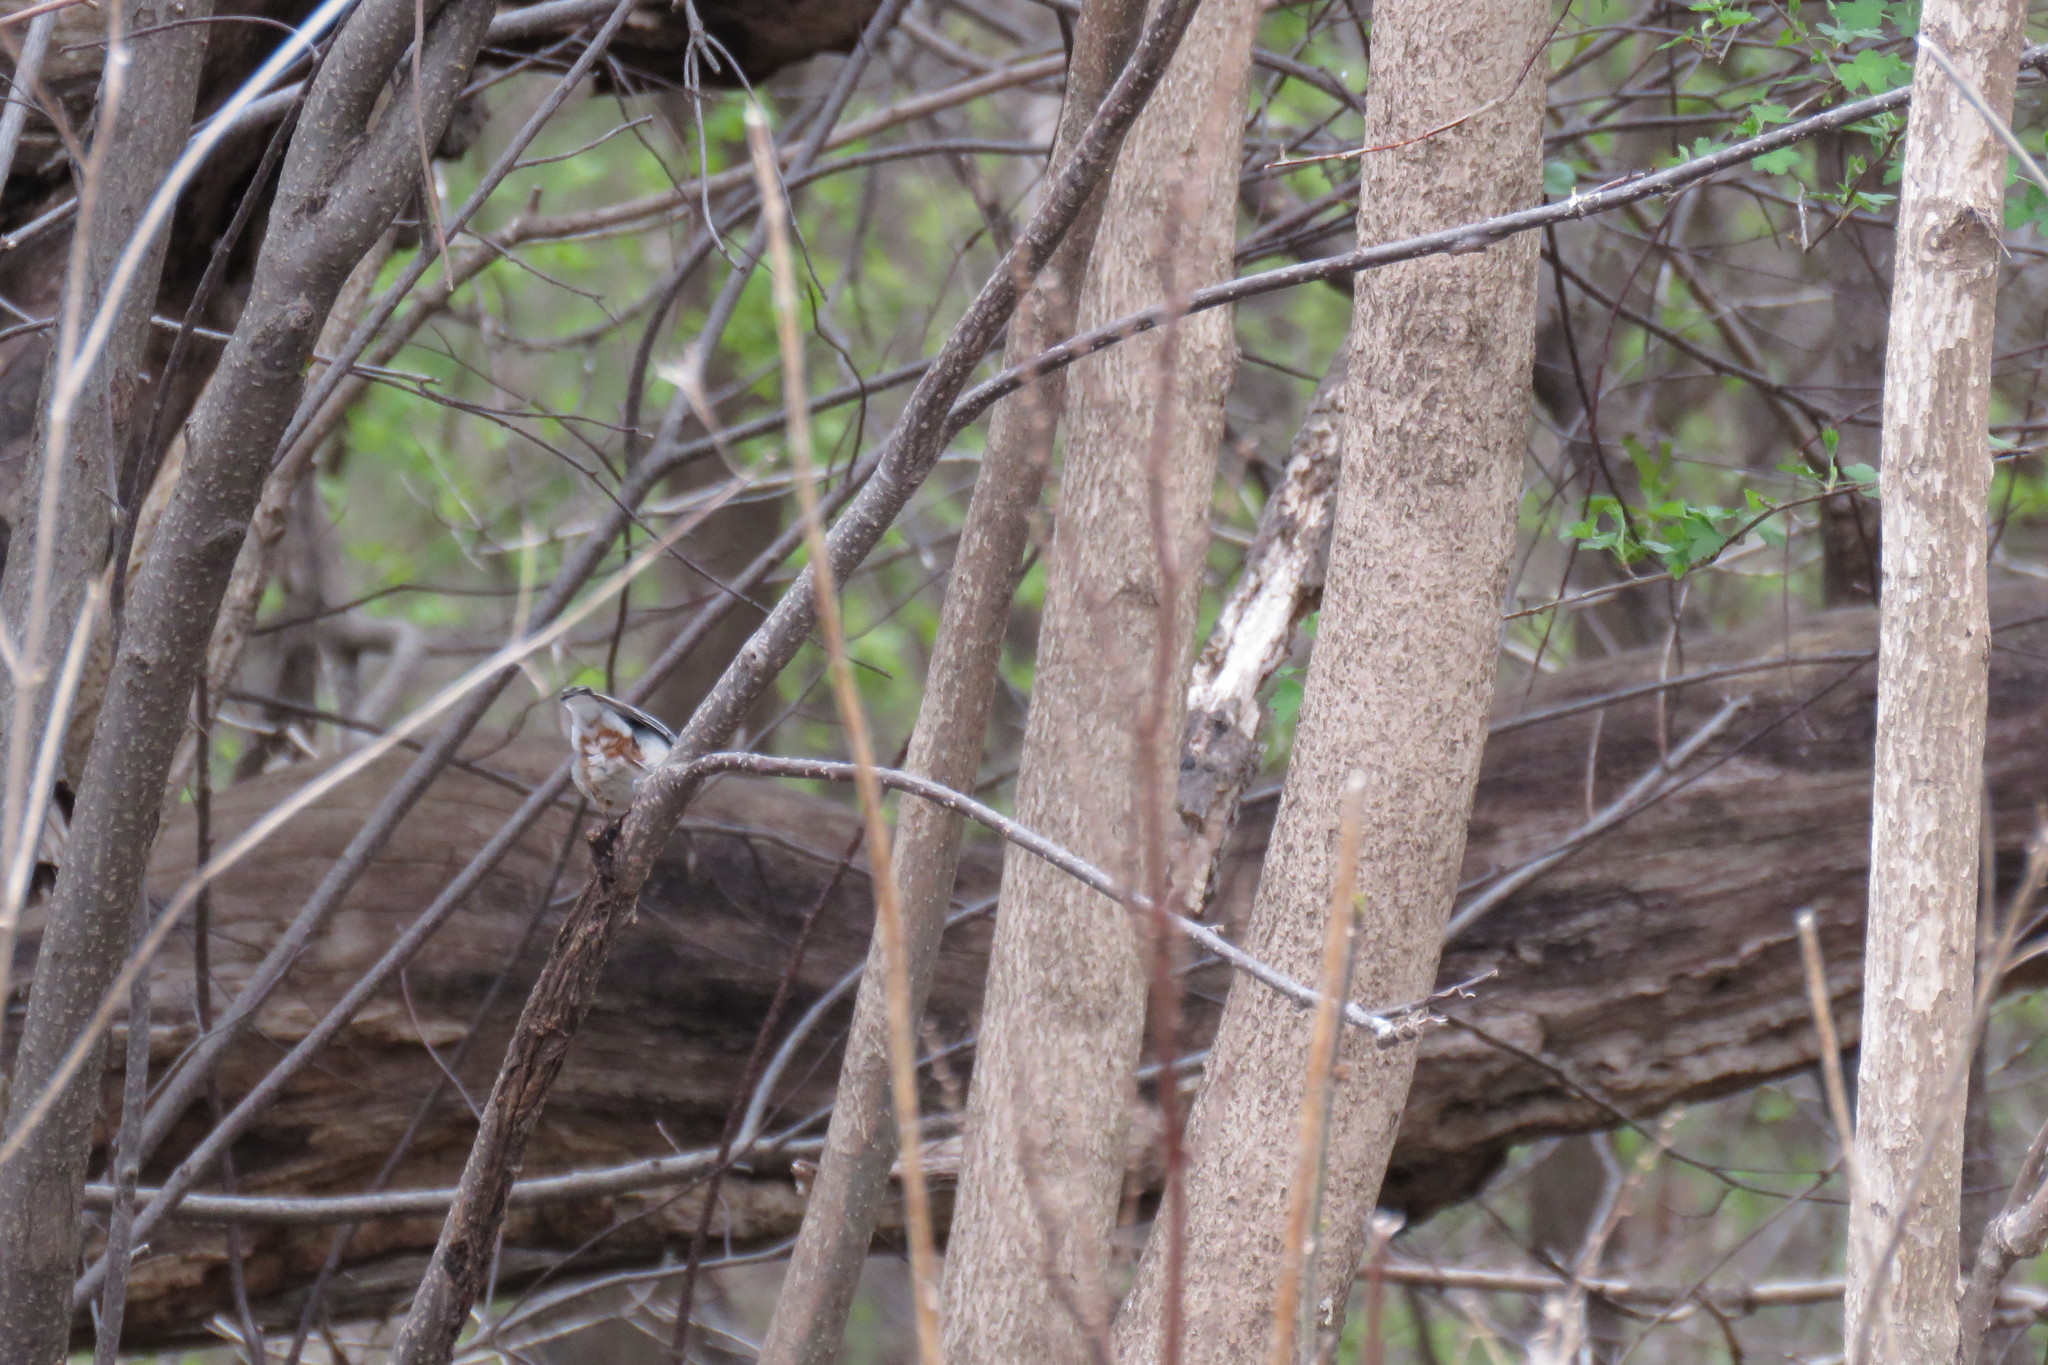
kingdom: Animalia
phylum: Chordata
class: Aves
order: Passeriformes
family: Sittidae
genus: Sitta
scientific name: Sitta carolinensis
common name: White-breasted nuthatch
